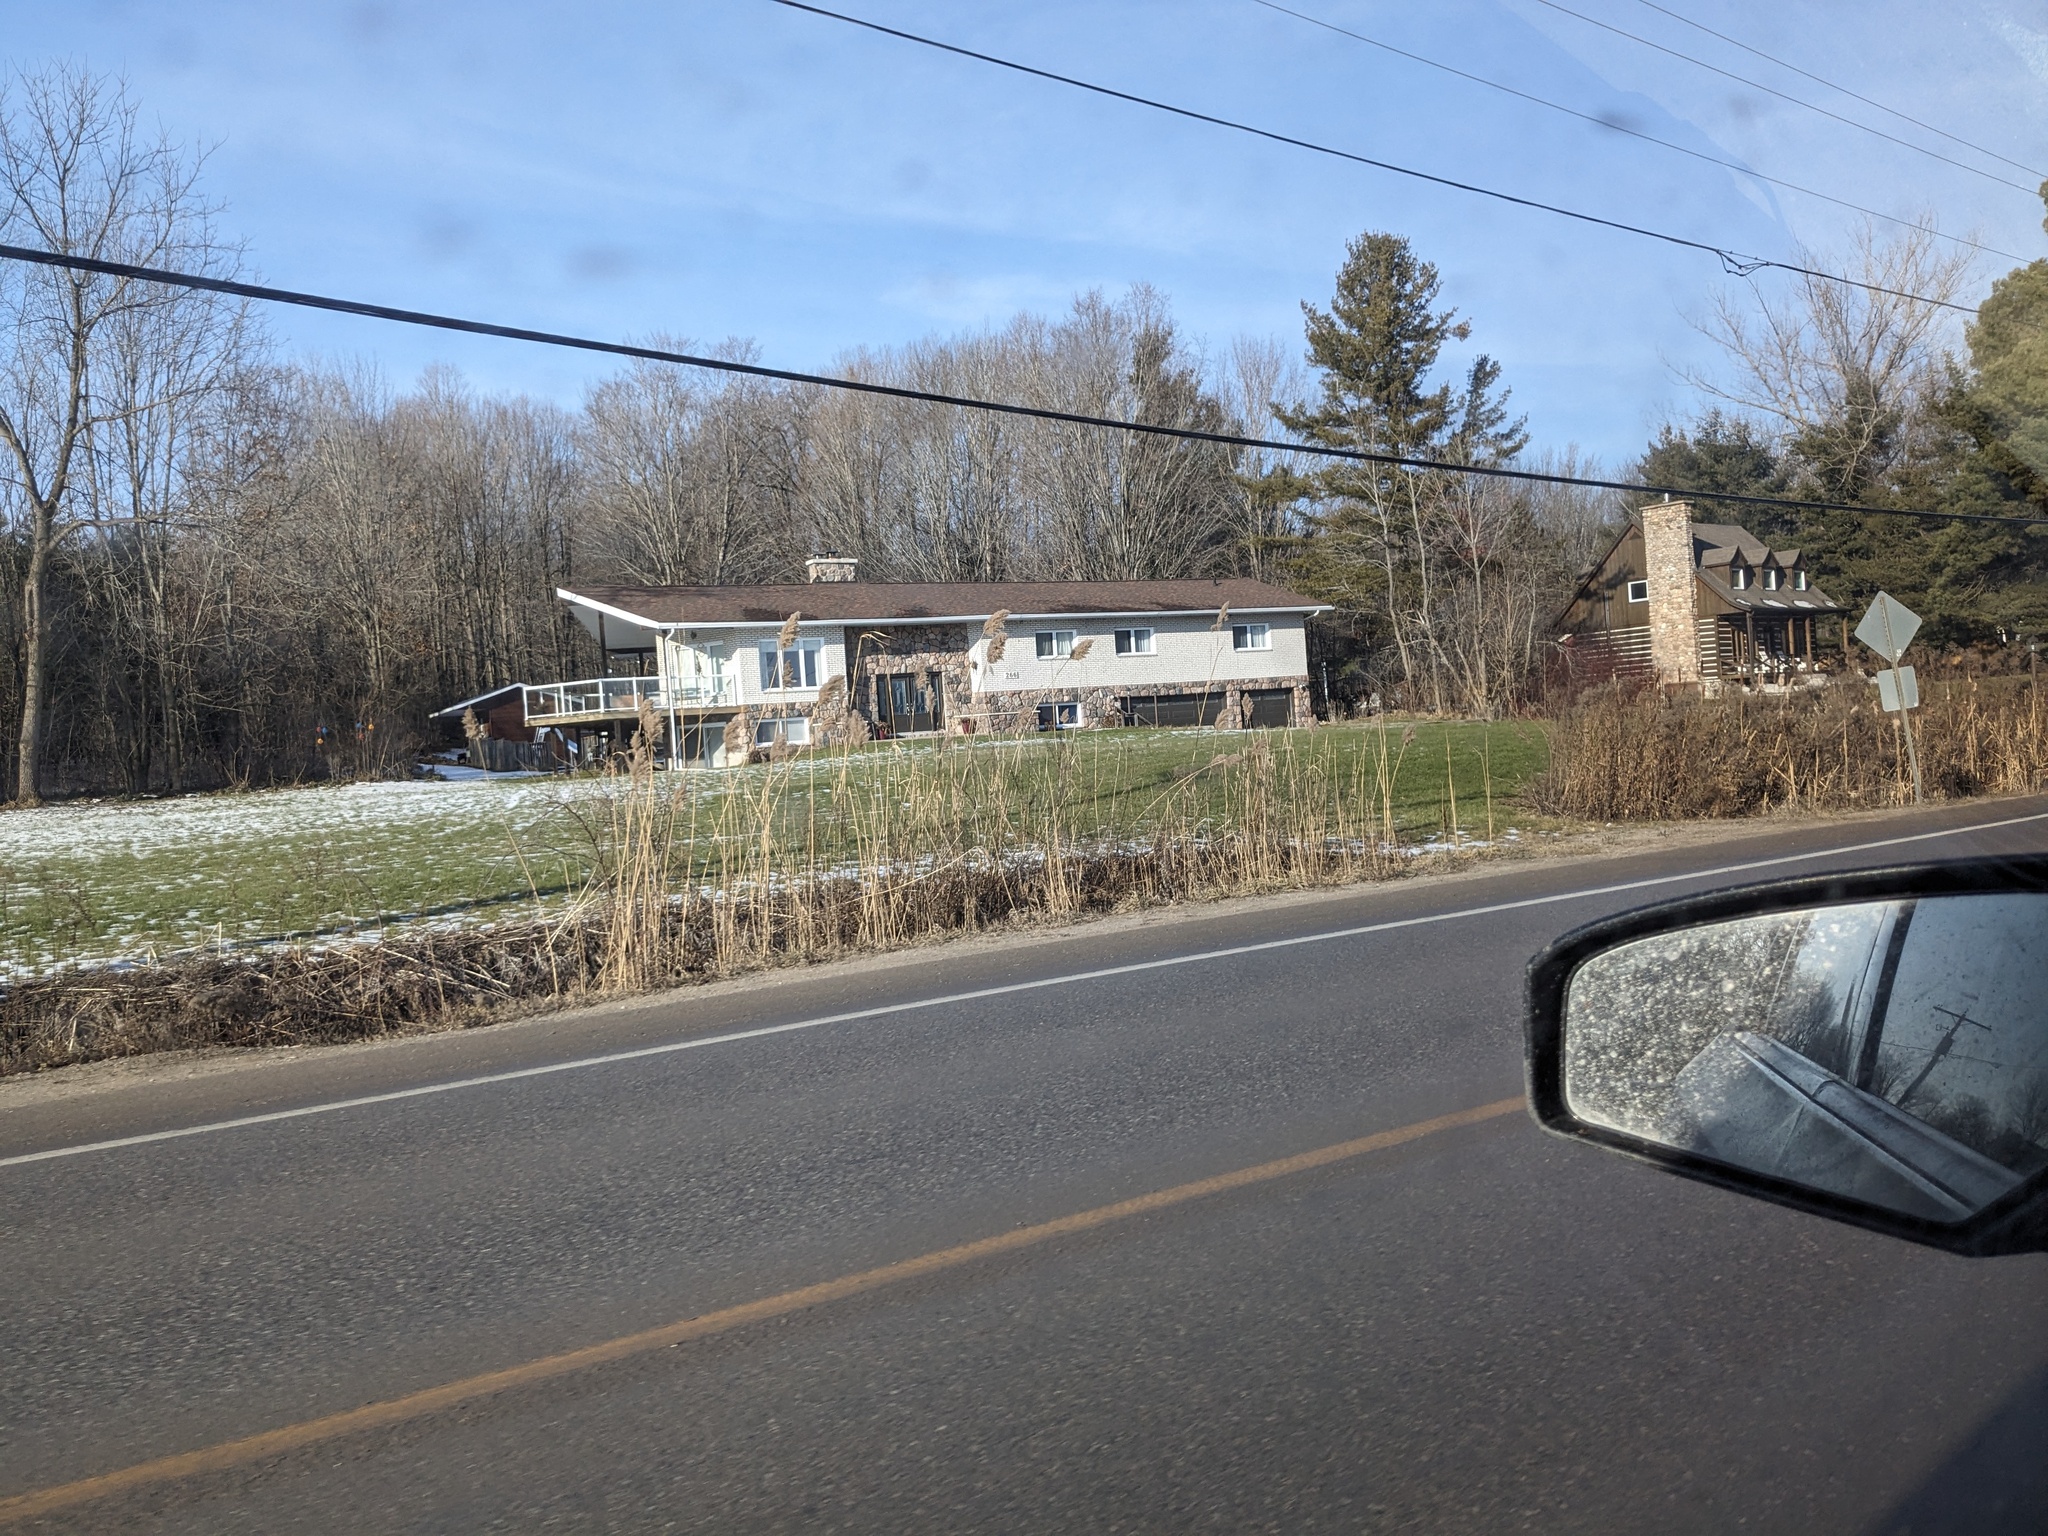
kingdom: Plantae
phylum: Tracheophyta
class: Liliopsida
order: Poales
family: Poaceae
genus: Phragmites
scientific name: Phragmites australis
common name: Common reed
